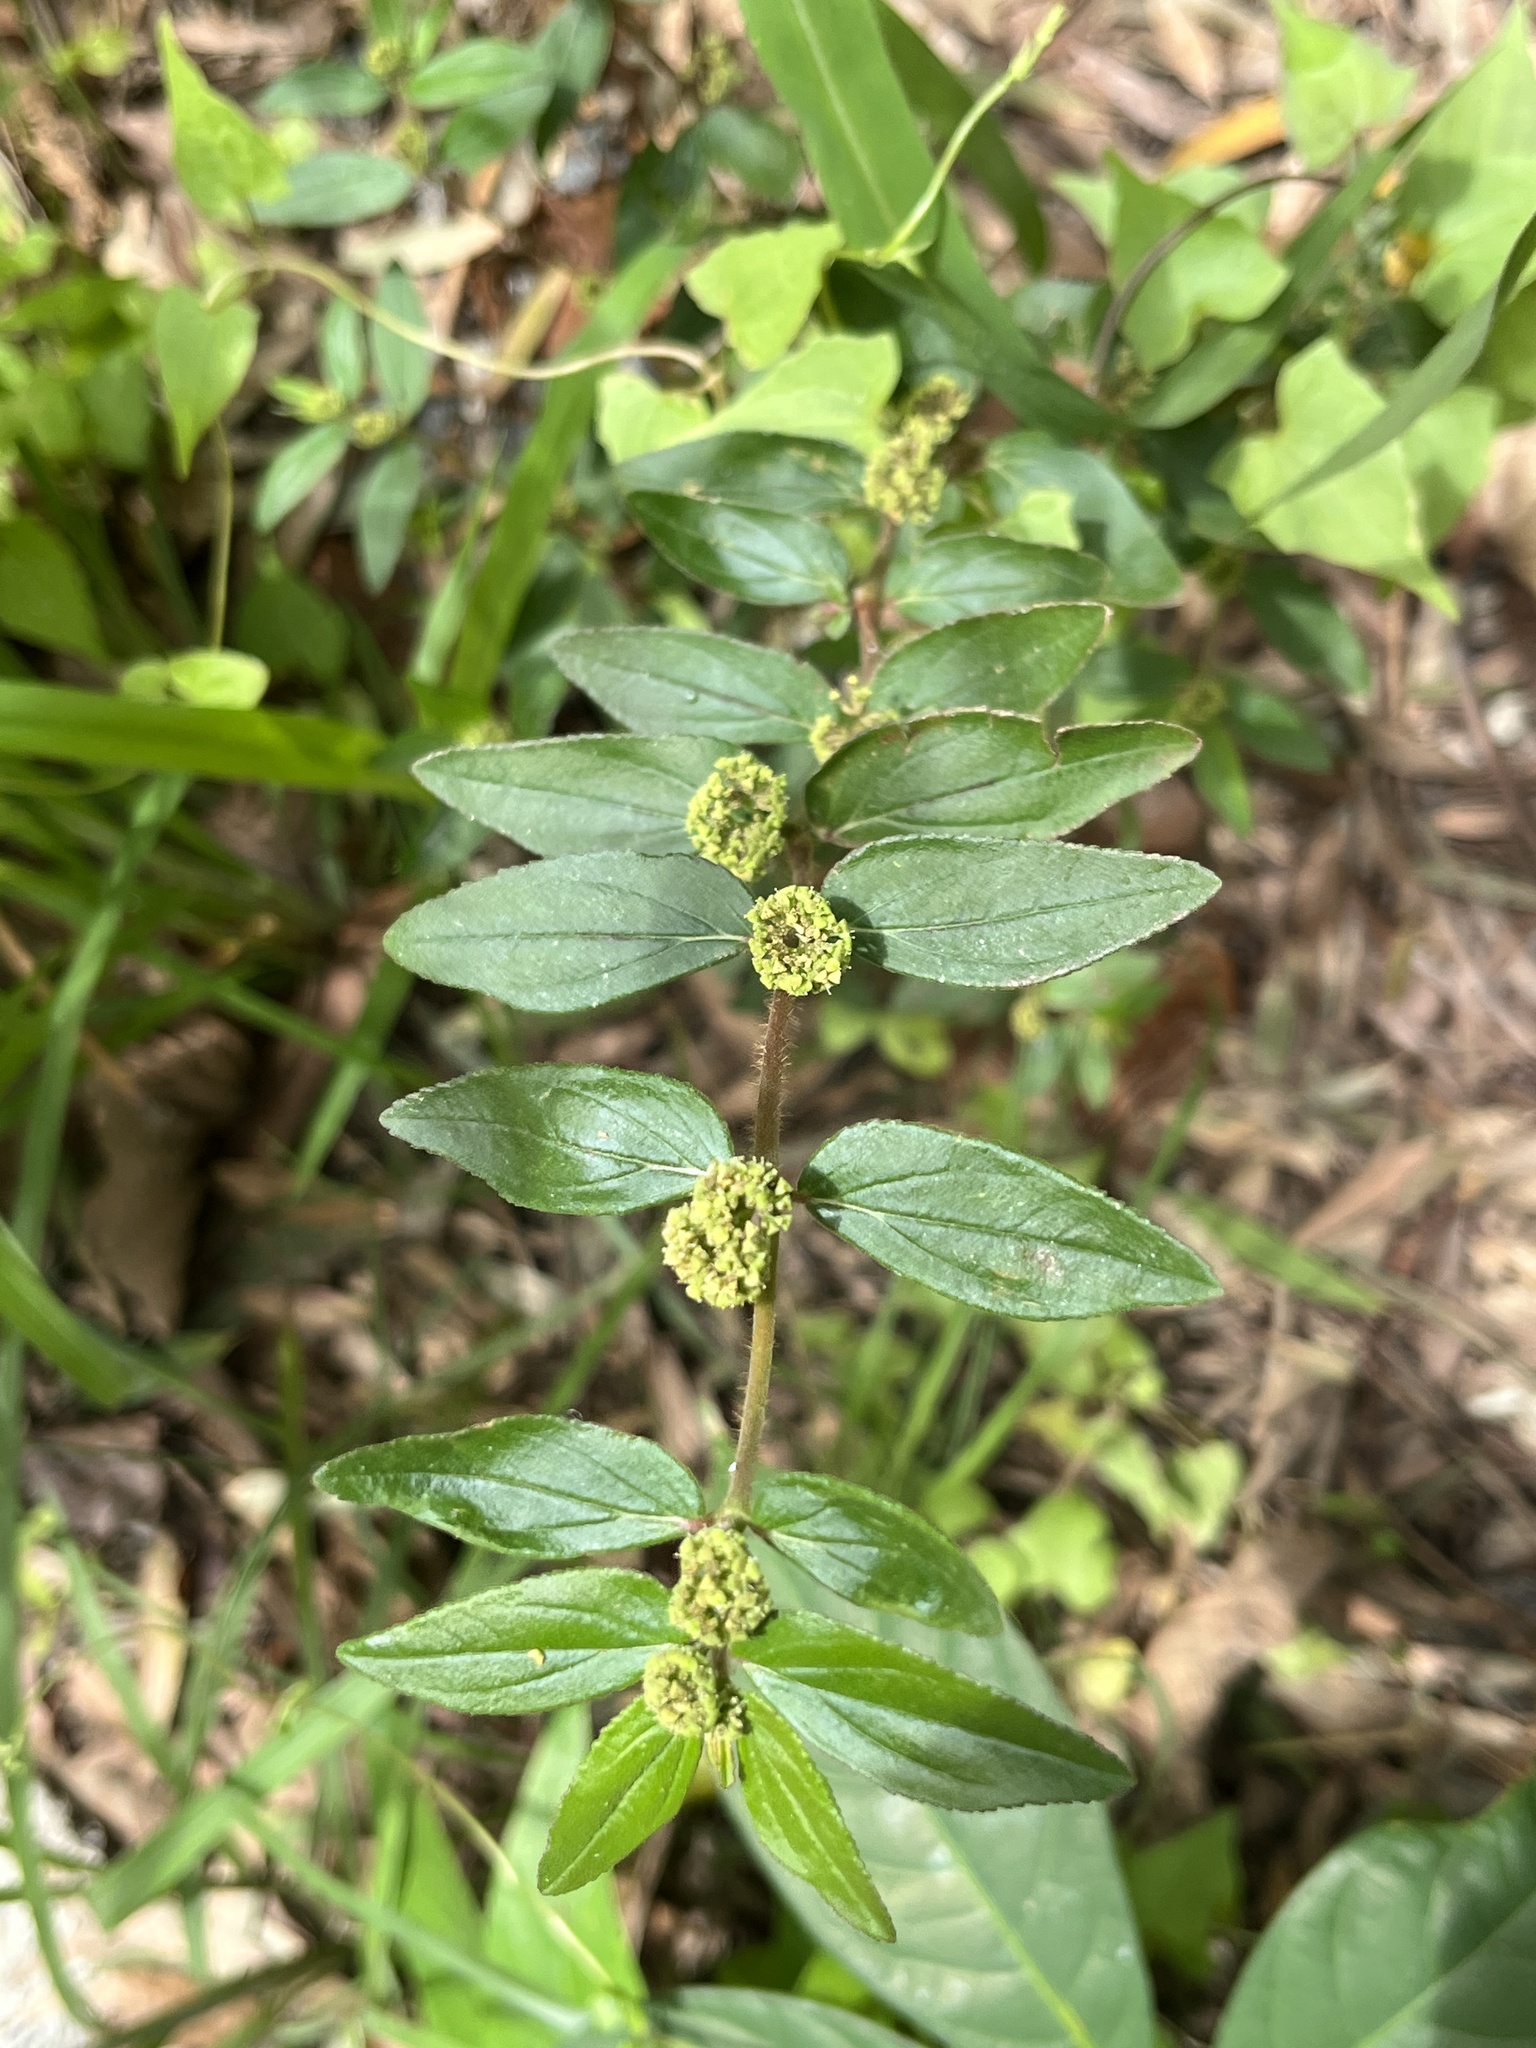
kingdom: Plantae
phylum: Tracheophyta
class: Magnoliopsida
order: Malpighiales
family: Euphorbiaceae
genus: Euphorbia
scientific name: Euphorbia hirta
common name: Pillpod sandmat
